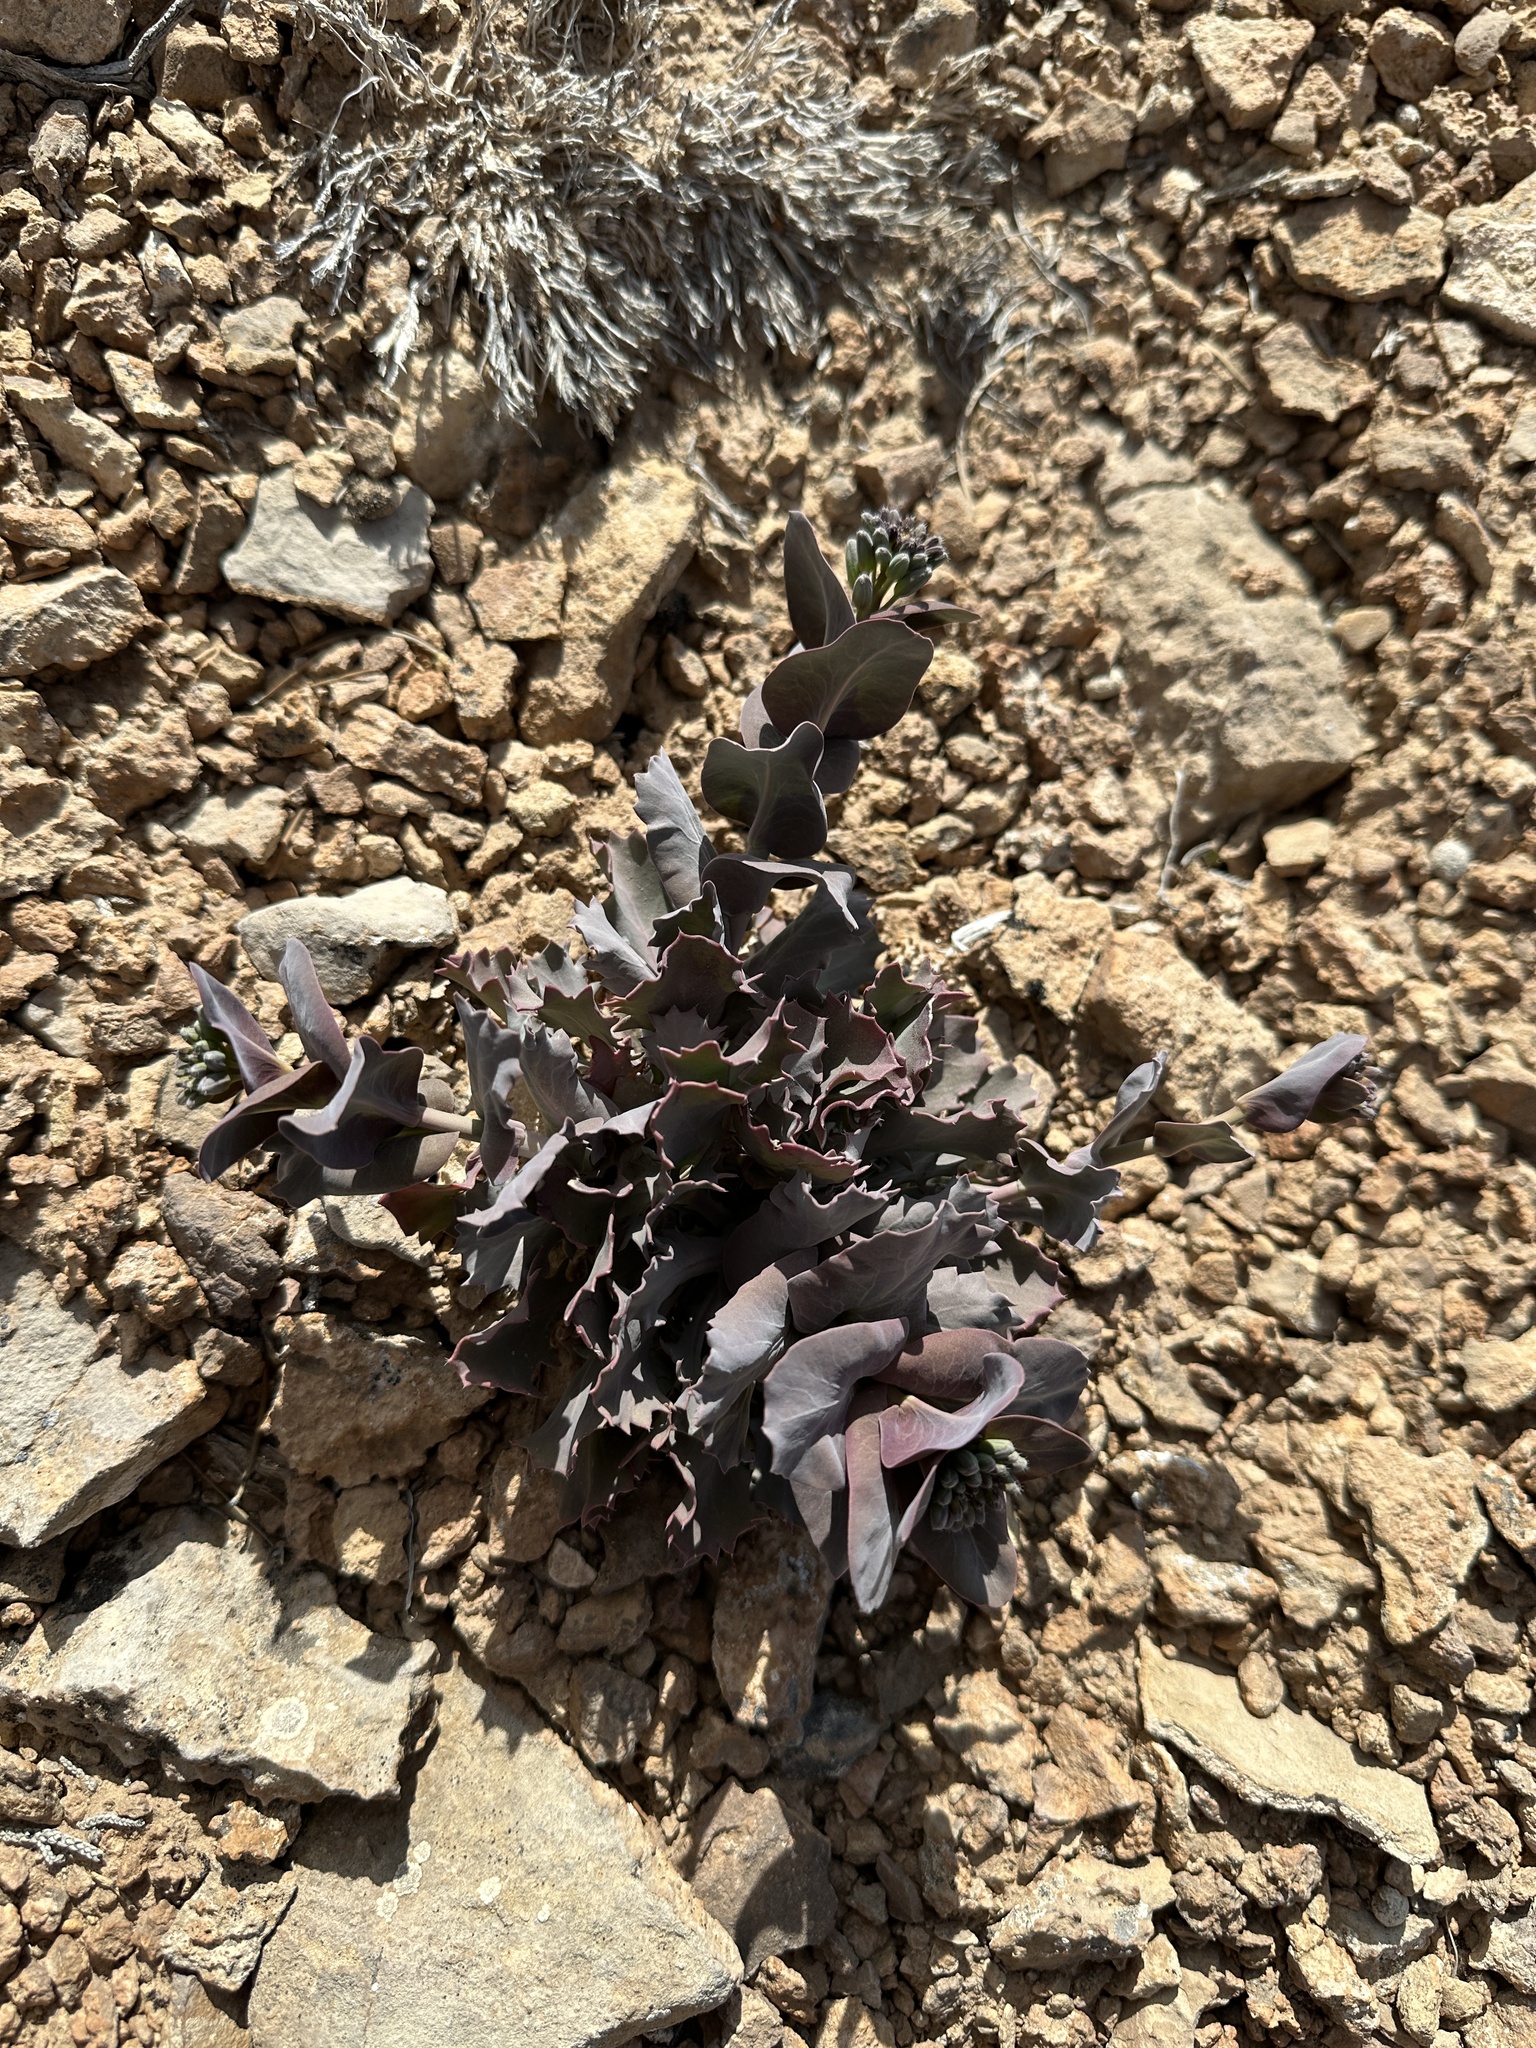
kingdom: Plantae
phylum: Tracheophyta
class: Magnoliopsida
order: Brassicales
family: Brassicaceae
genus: Streptanthus
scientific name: Streptanthus cordatus
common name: Heart-leaf jewel-flower
